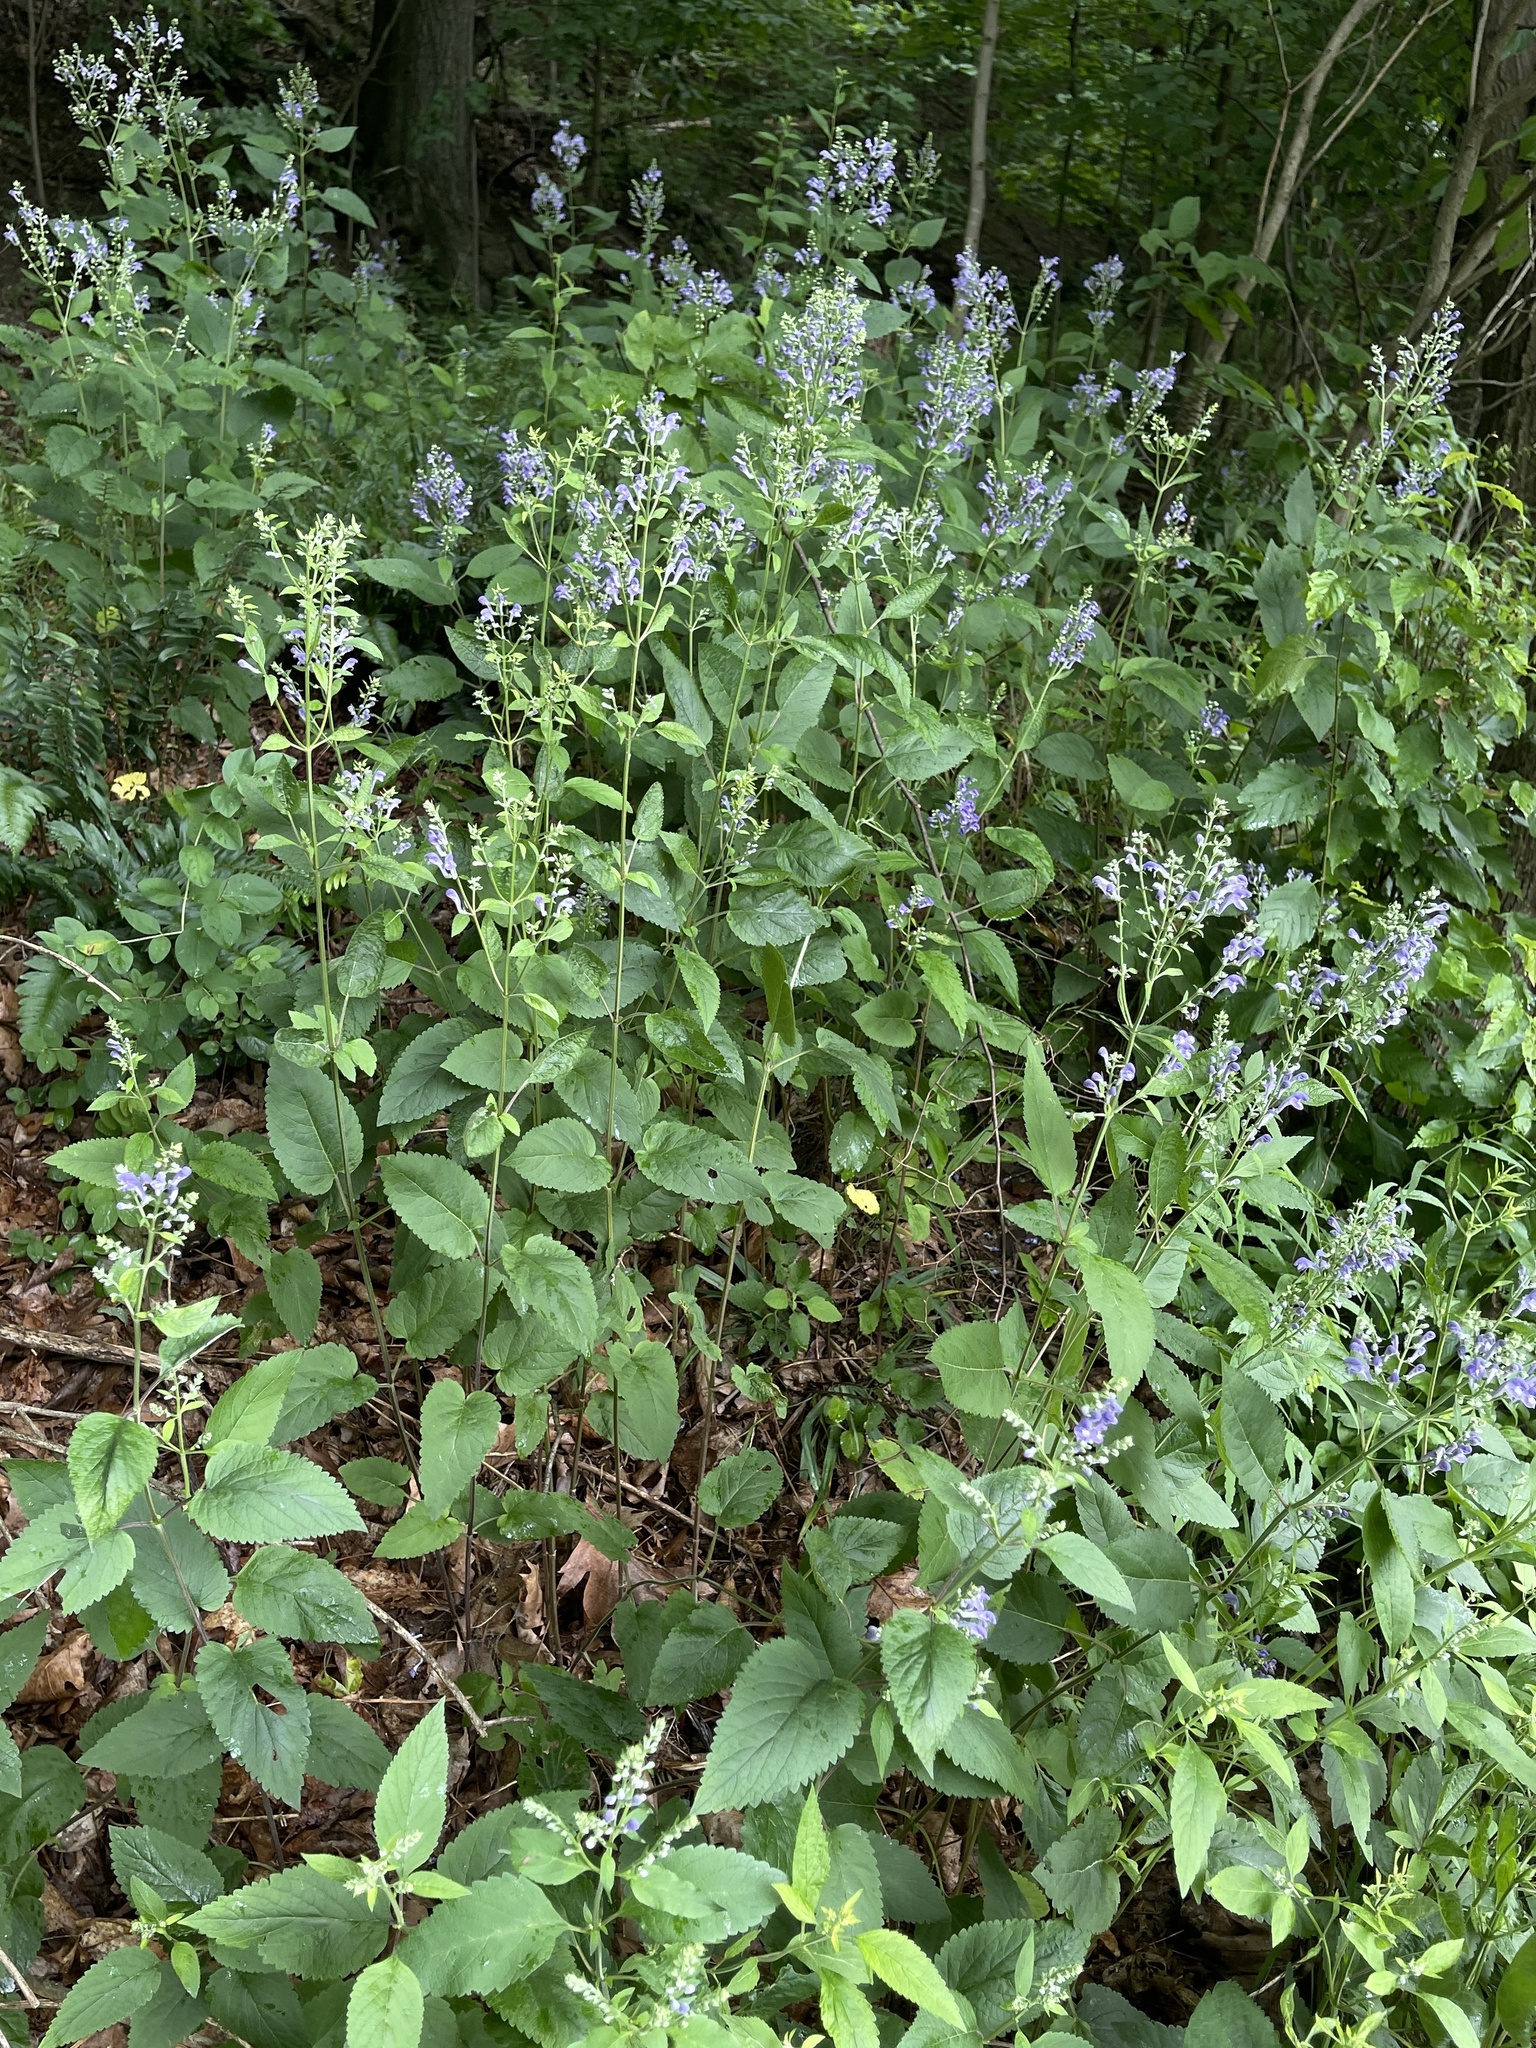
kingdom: Plantae
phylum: Tracheophyta
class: Magnoliopsida
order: Lamiales
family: Lamiaceae
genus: Scutellaria
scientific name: Scutellaria incana
